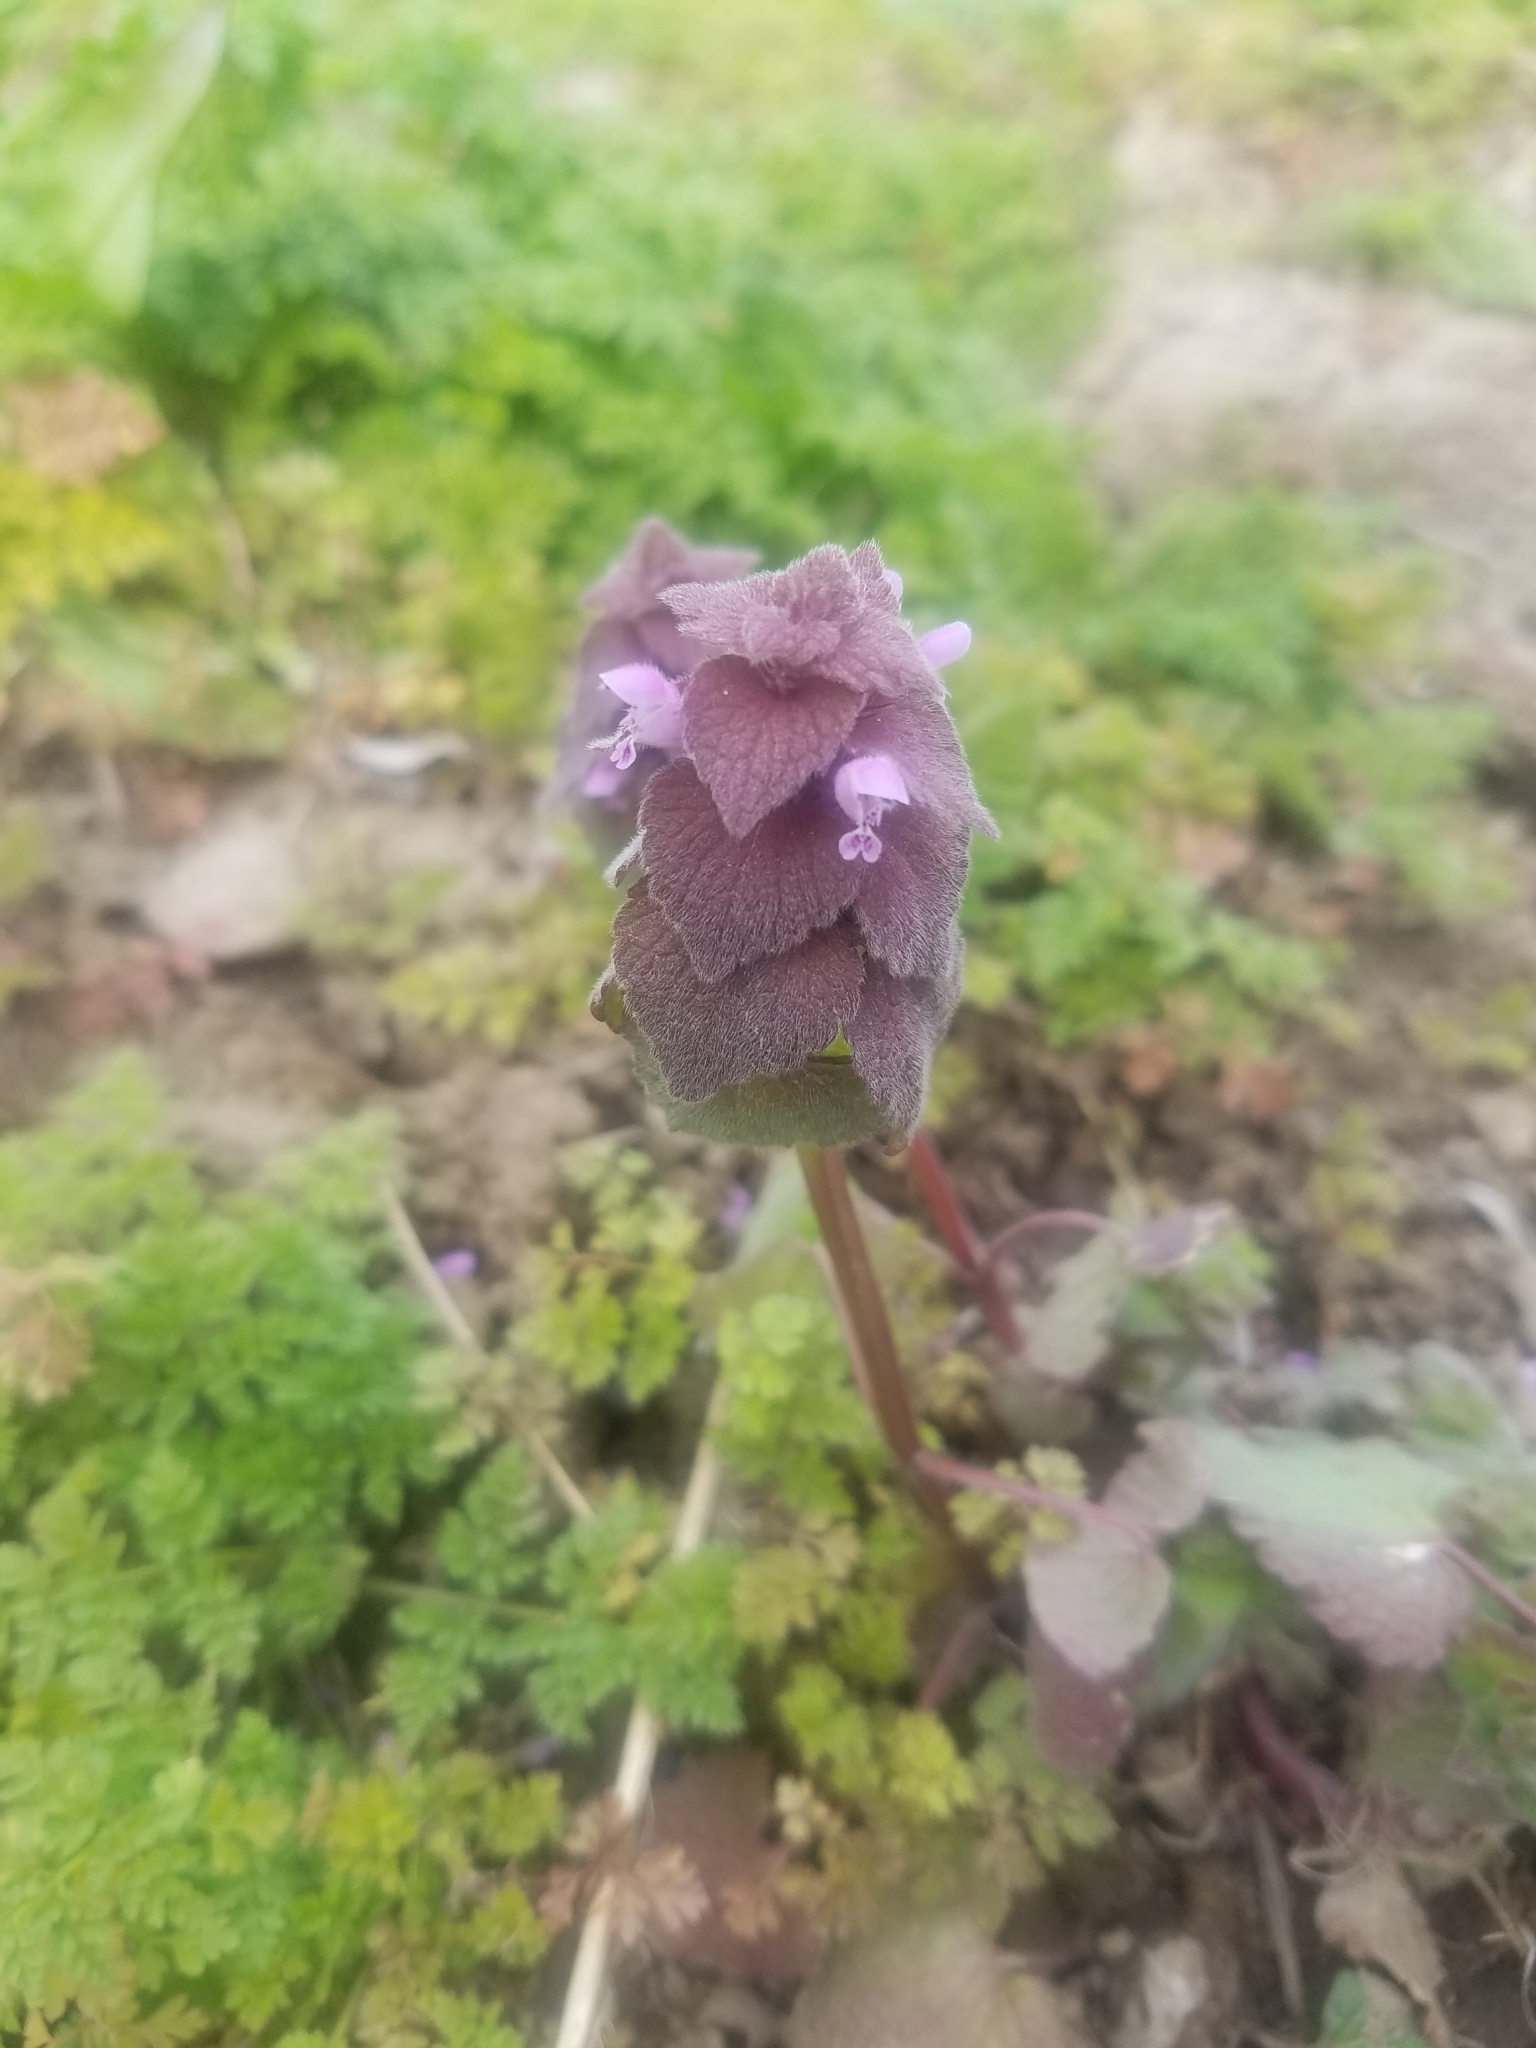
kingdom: Plantae
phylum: Tracheophyta
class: Magnoliopsida
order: Lamiales
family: Lamiaceae
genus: Lamium
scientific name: Lamium purpureum
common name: Red dead-nettle
